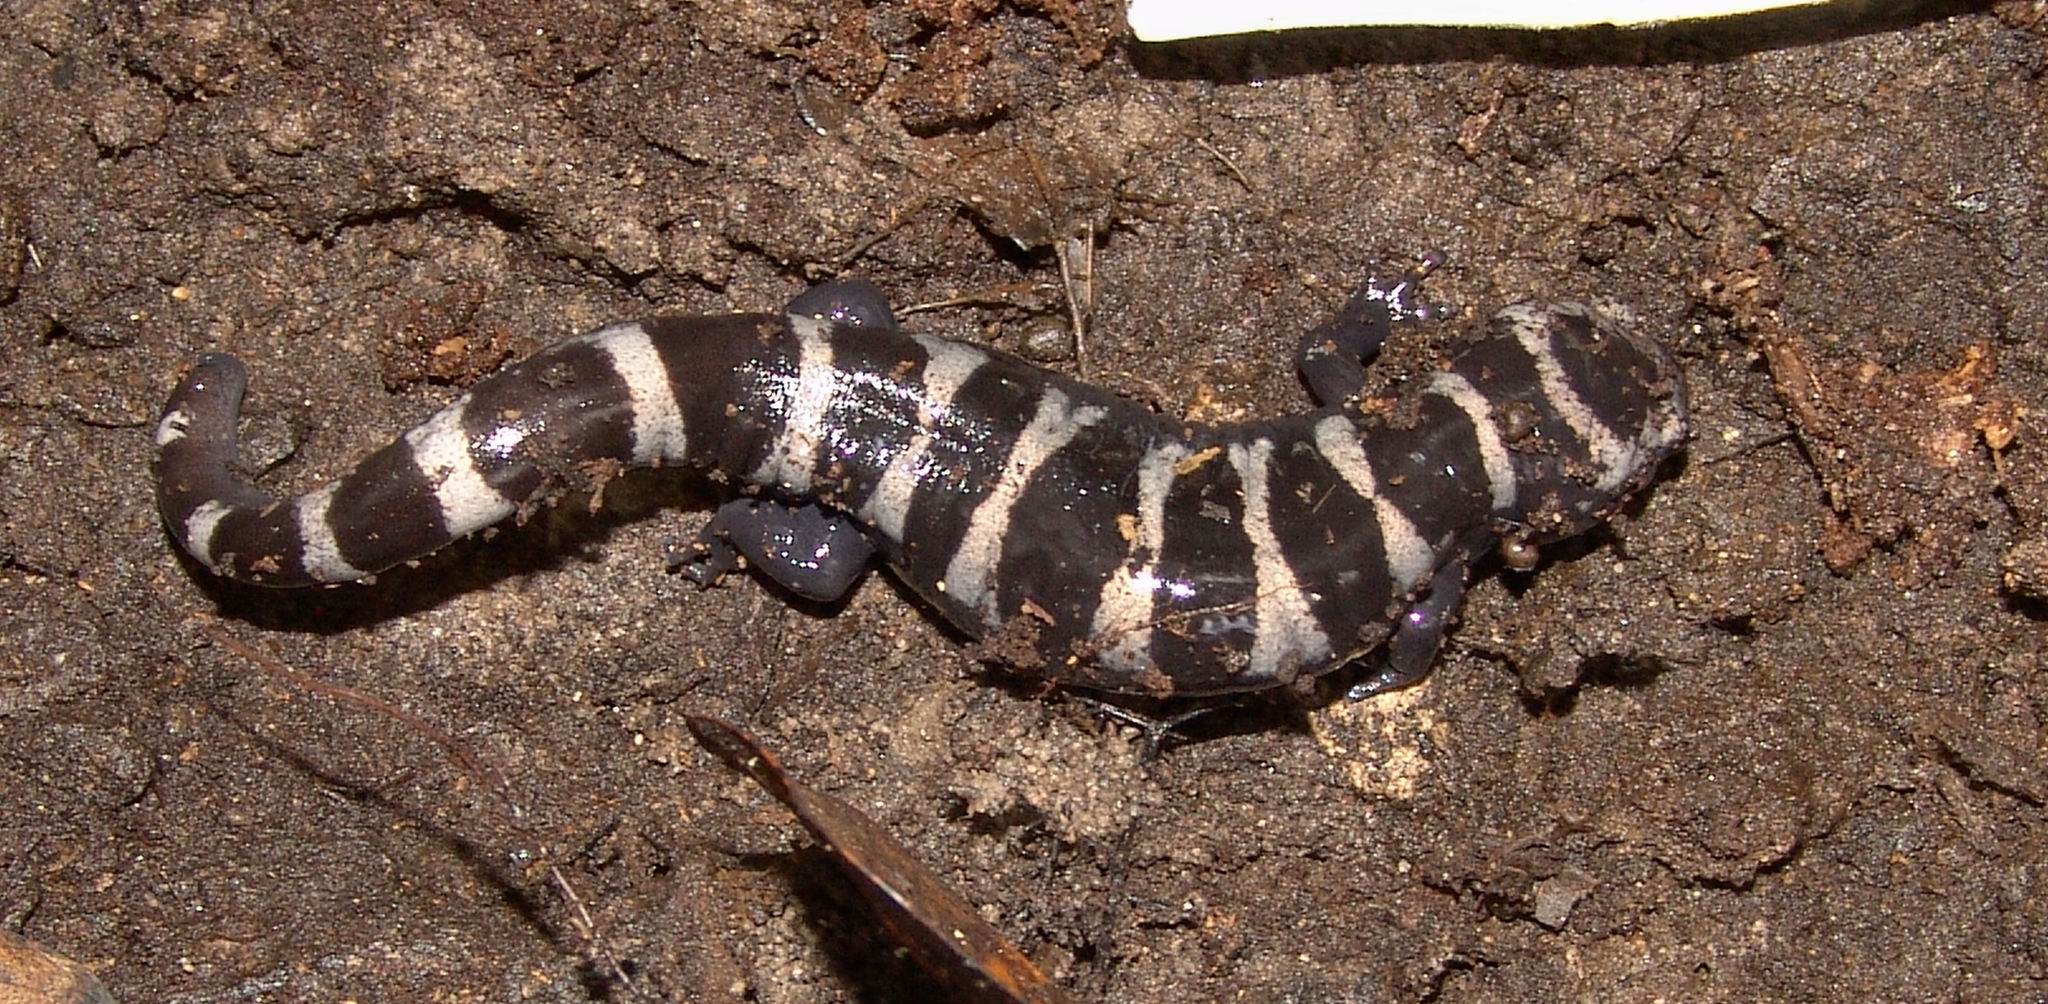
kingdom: Animalia
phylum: Chordata
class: Amphibia
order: Caudata
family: Ambystomatidae
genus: Ambystoma
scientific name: Ambystoma opacum
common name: Marbled salamander
